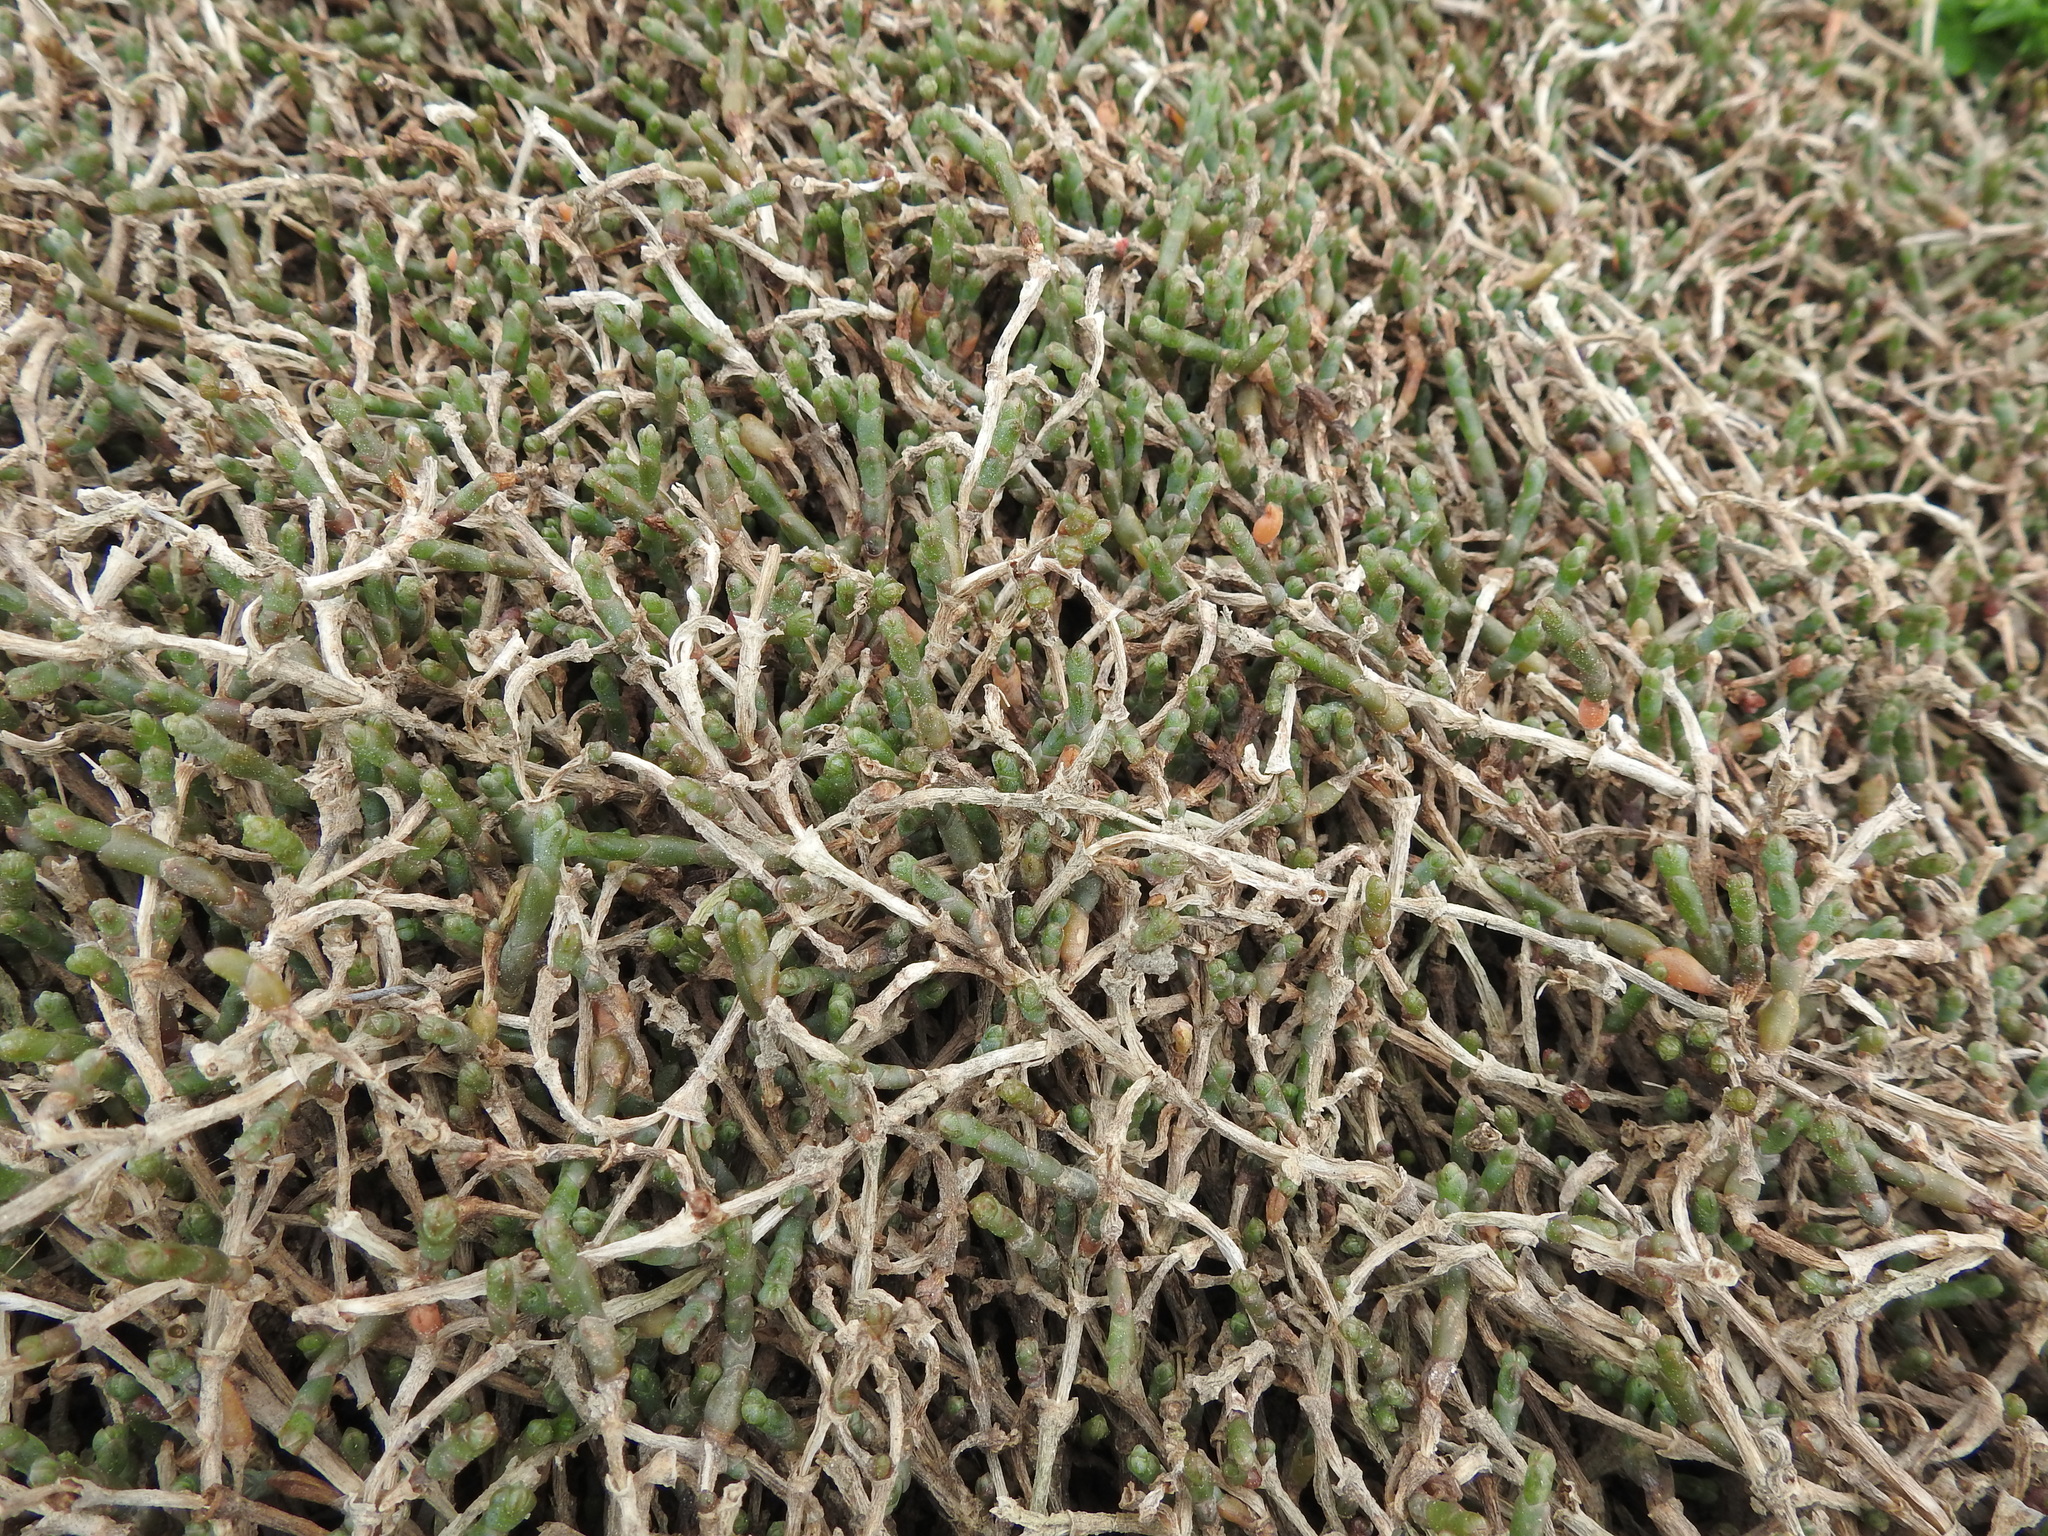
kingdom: Plantae
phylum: Tracheophyta
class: Magnoliopsida
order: Caryophyllales
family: Amaranthaceae
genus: Salicornia
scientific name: Salicornia quinqueflora
